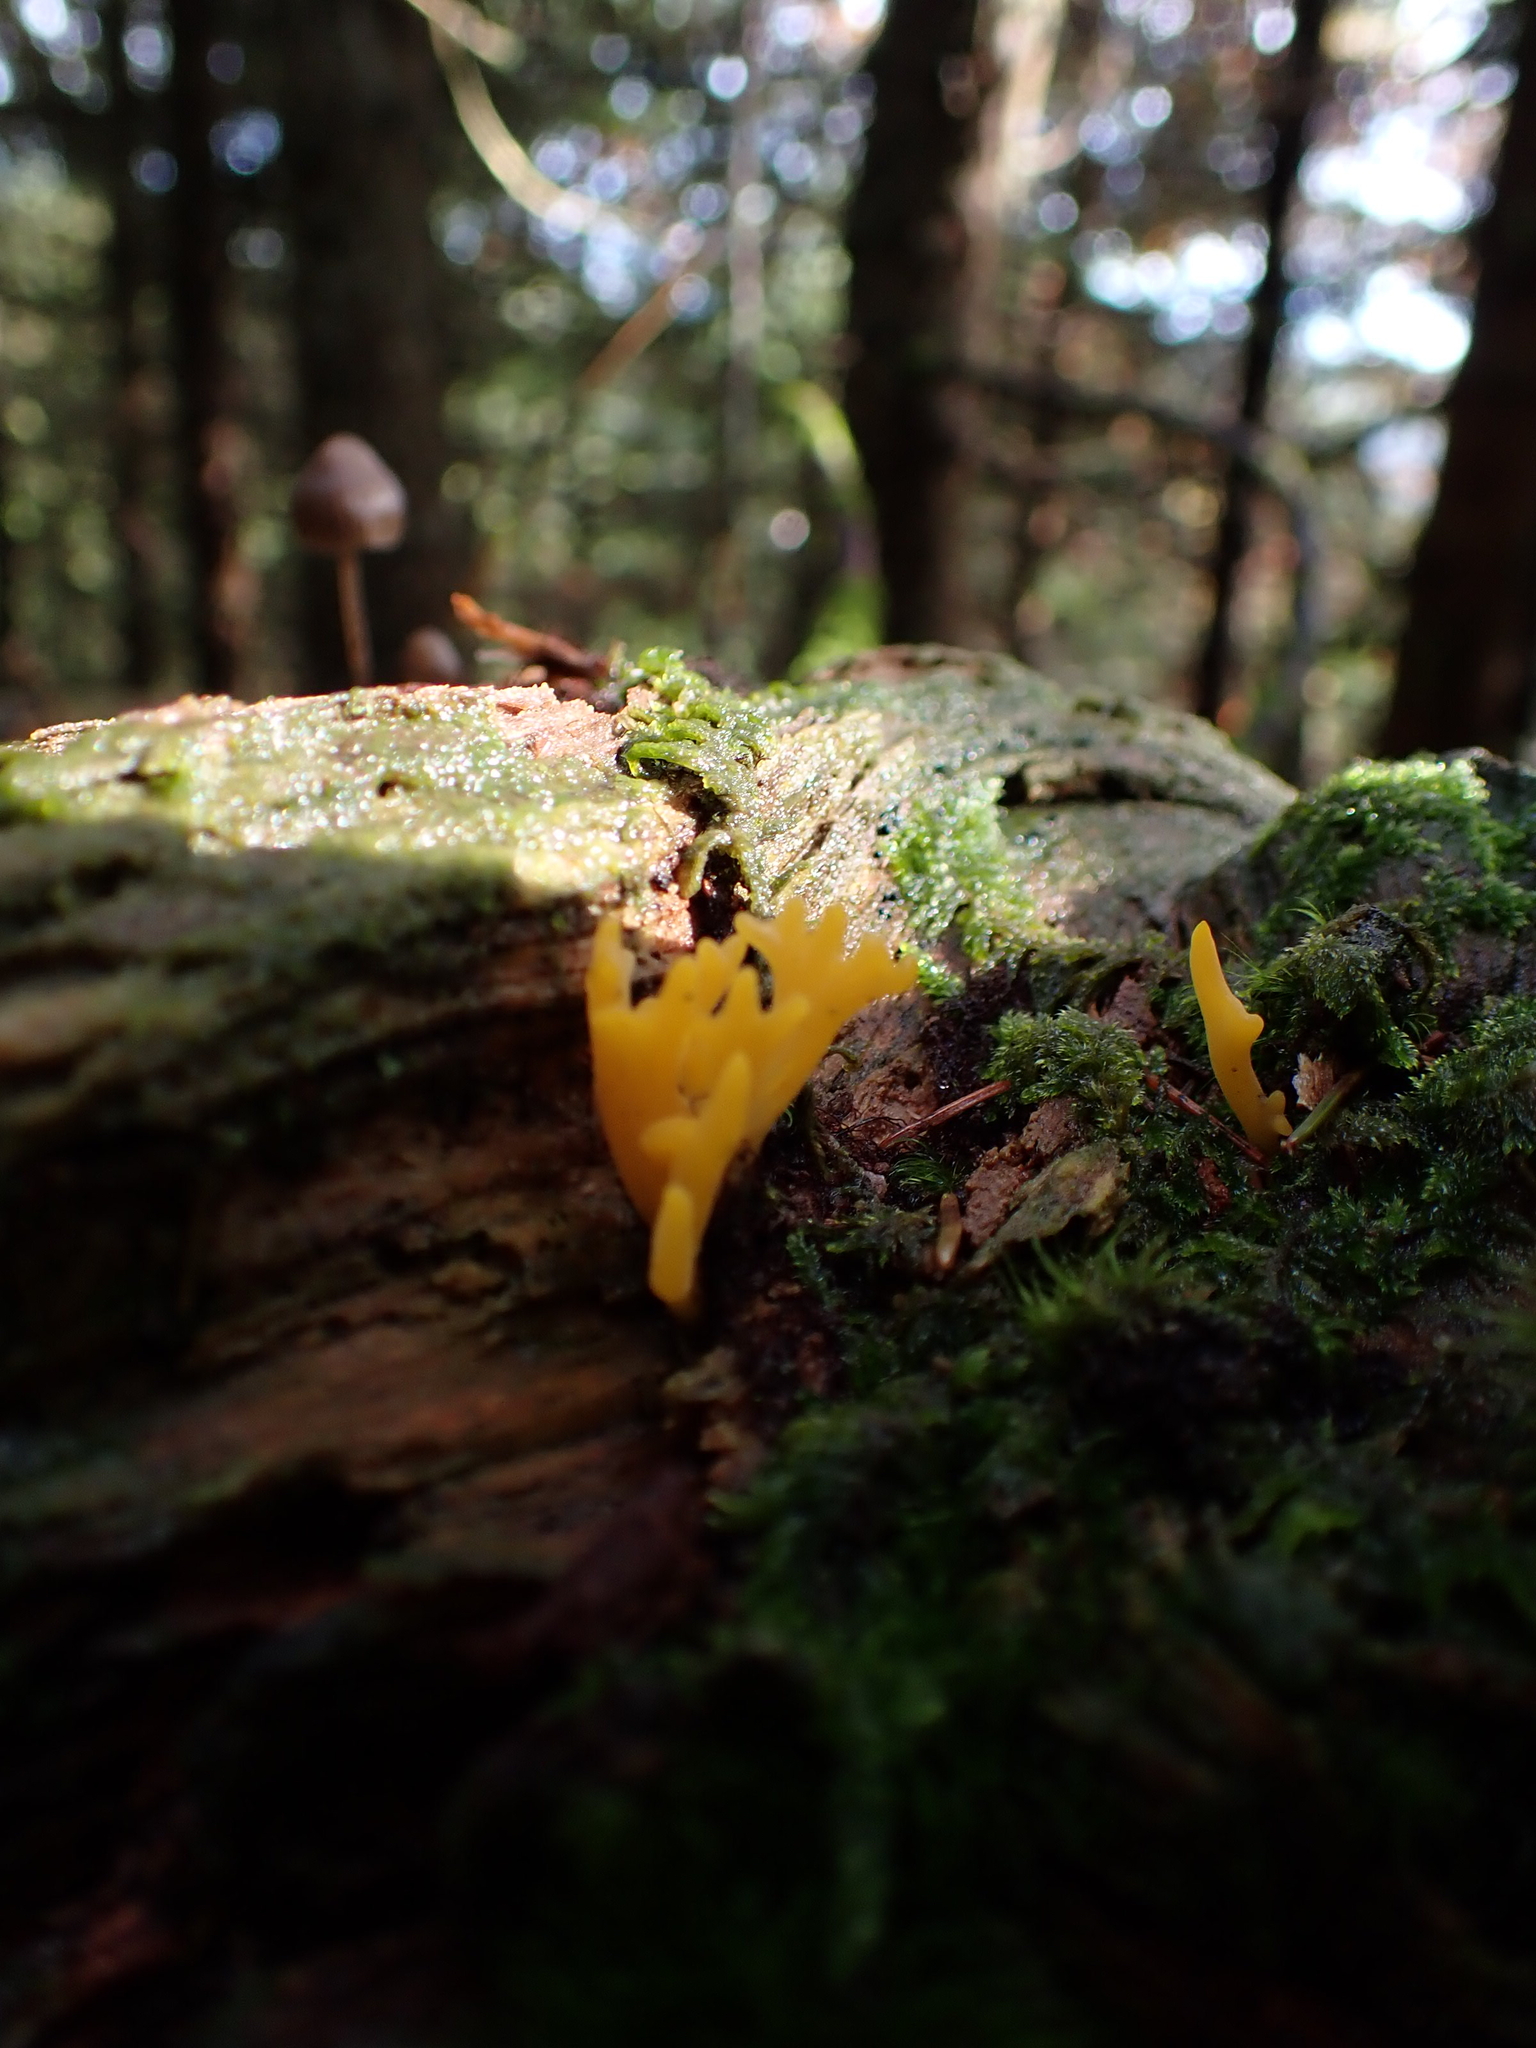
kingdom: Fungi
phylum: Basidiomycota
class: Dacrymycetes
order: Dacrymycetales
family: Dacrymycetaceae
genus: Calocera
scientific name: Calocera viscosa
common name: Yellow stagshorn
